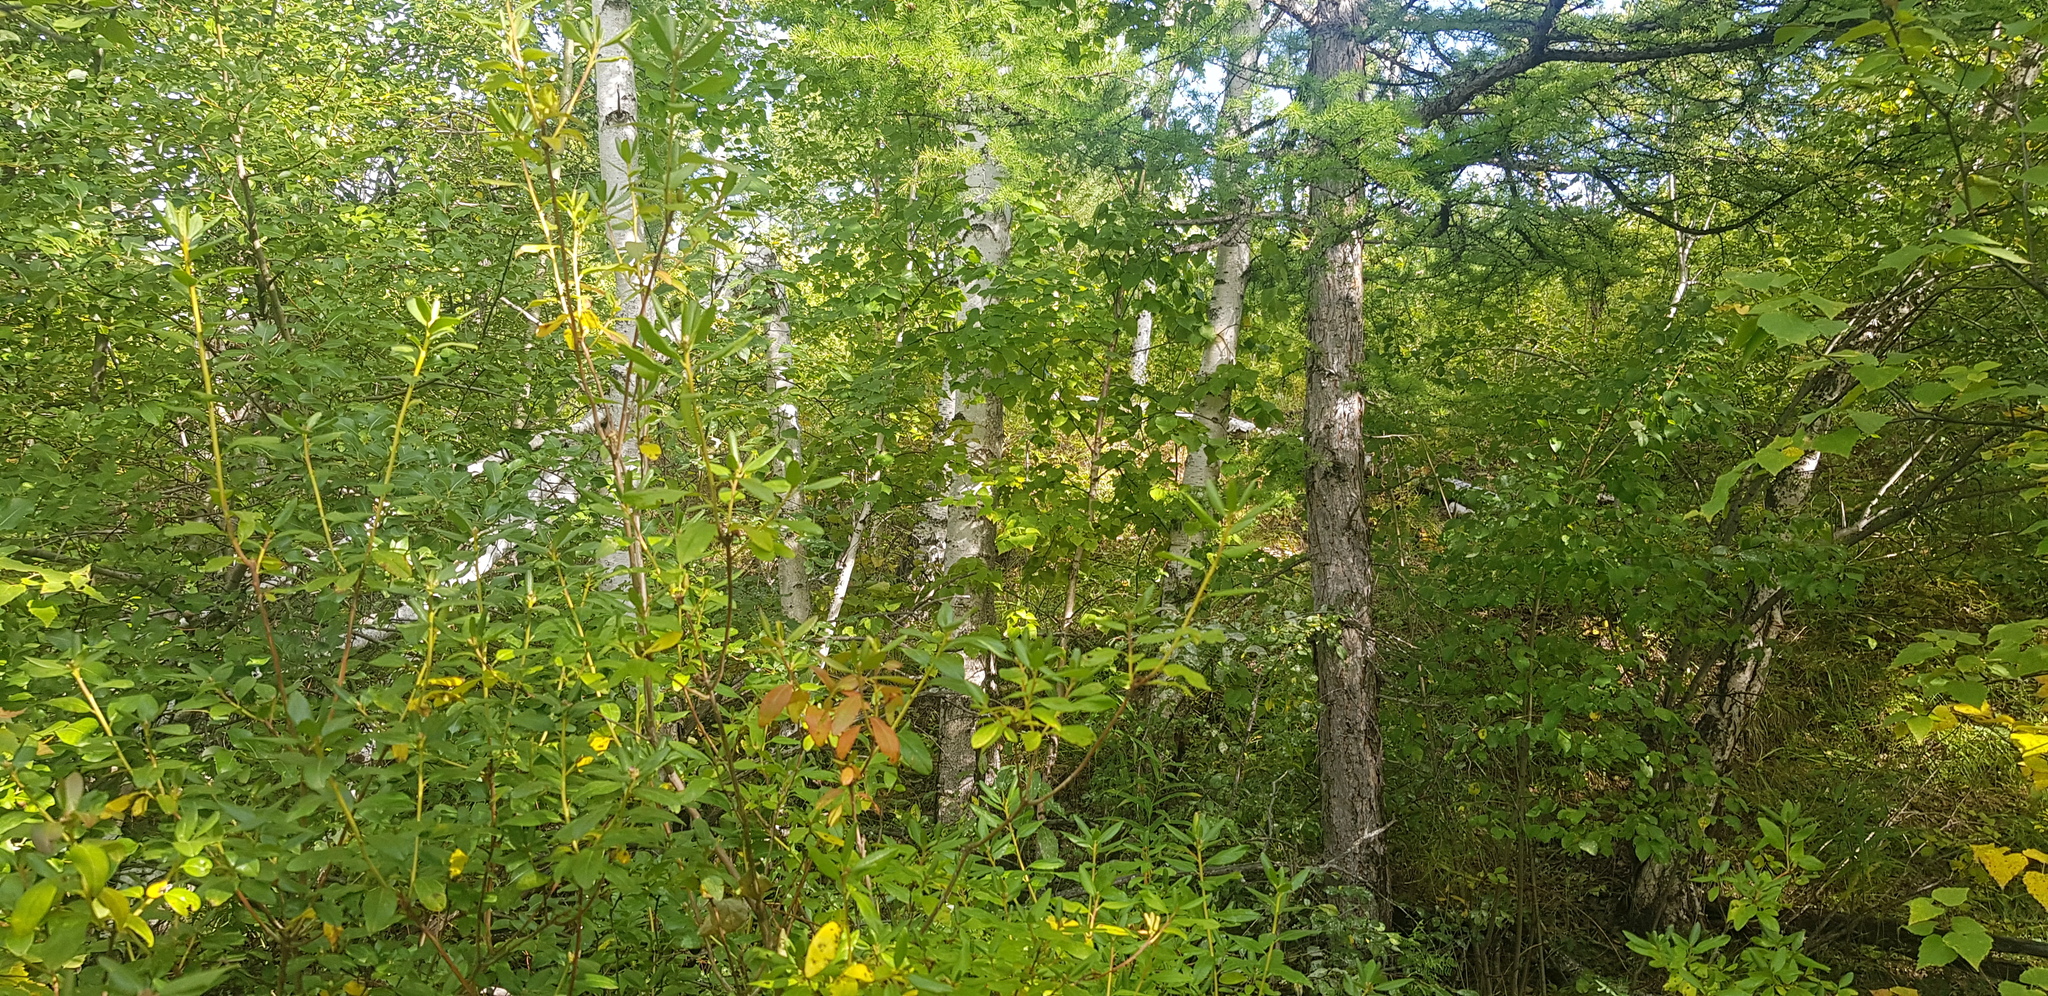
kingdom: Plantae
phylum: Tracheophyta
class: Magnoliopsida
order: Ericales
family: Ericaceae
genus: Rhododendron
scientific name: Rhododendron dauricum
